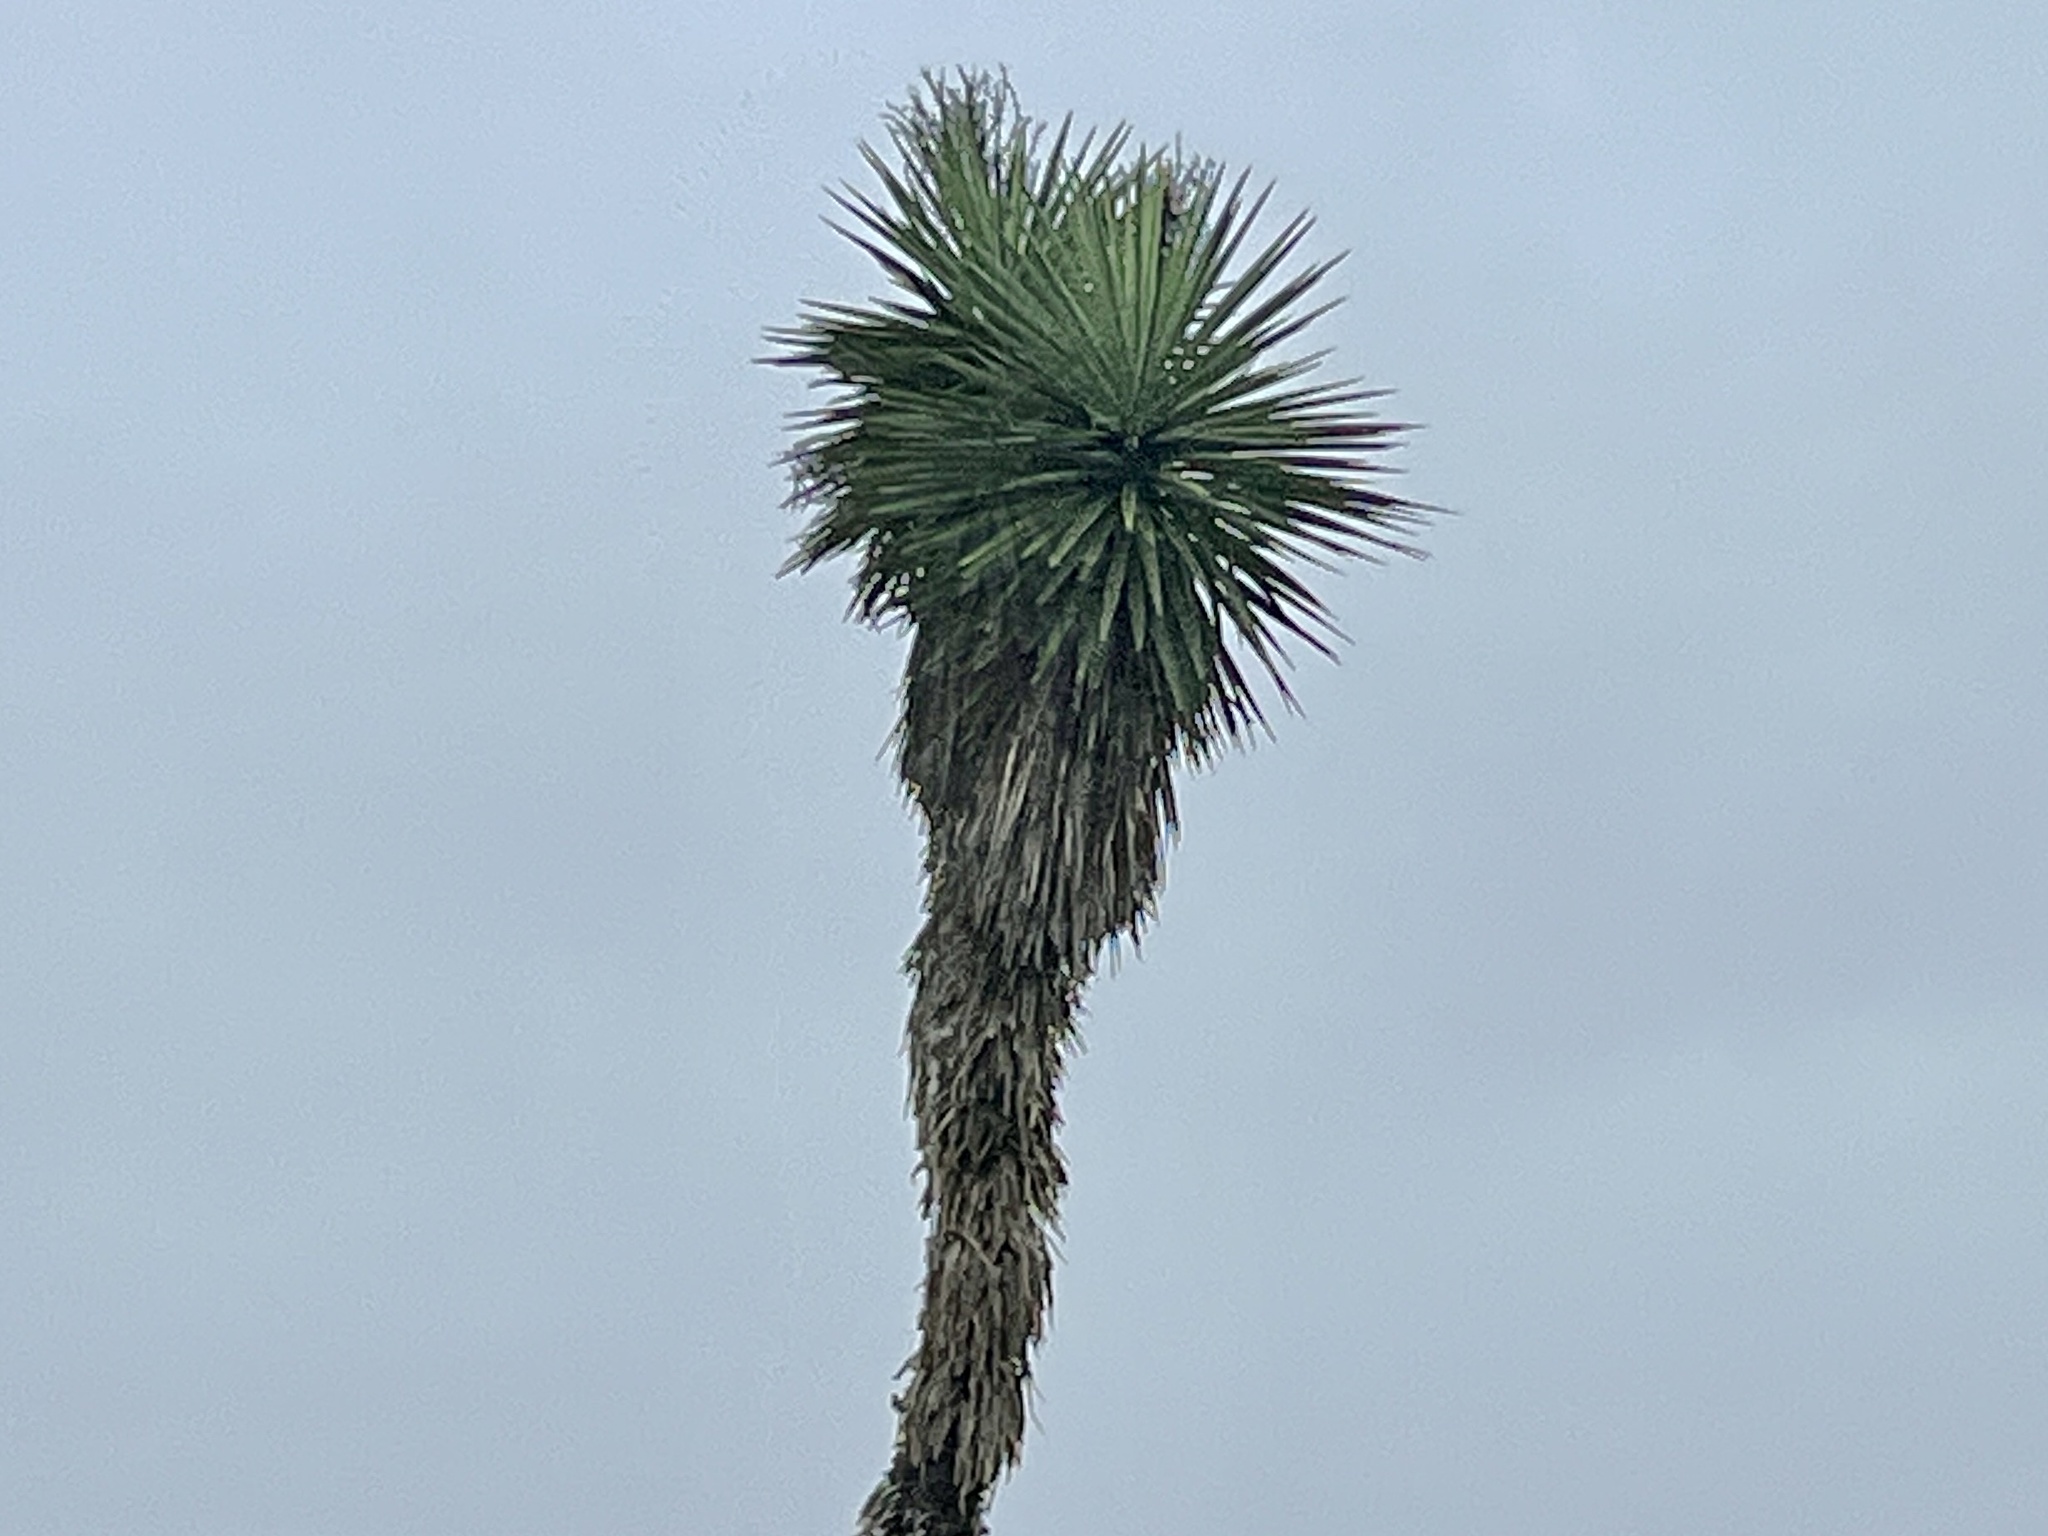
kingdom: Plantae
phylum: Tracheophyta
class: Liliopsida
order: Asparagales
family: Asparagaceae
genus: Yucca
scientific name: Yucca treculiana
